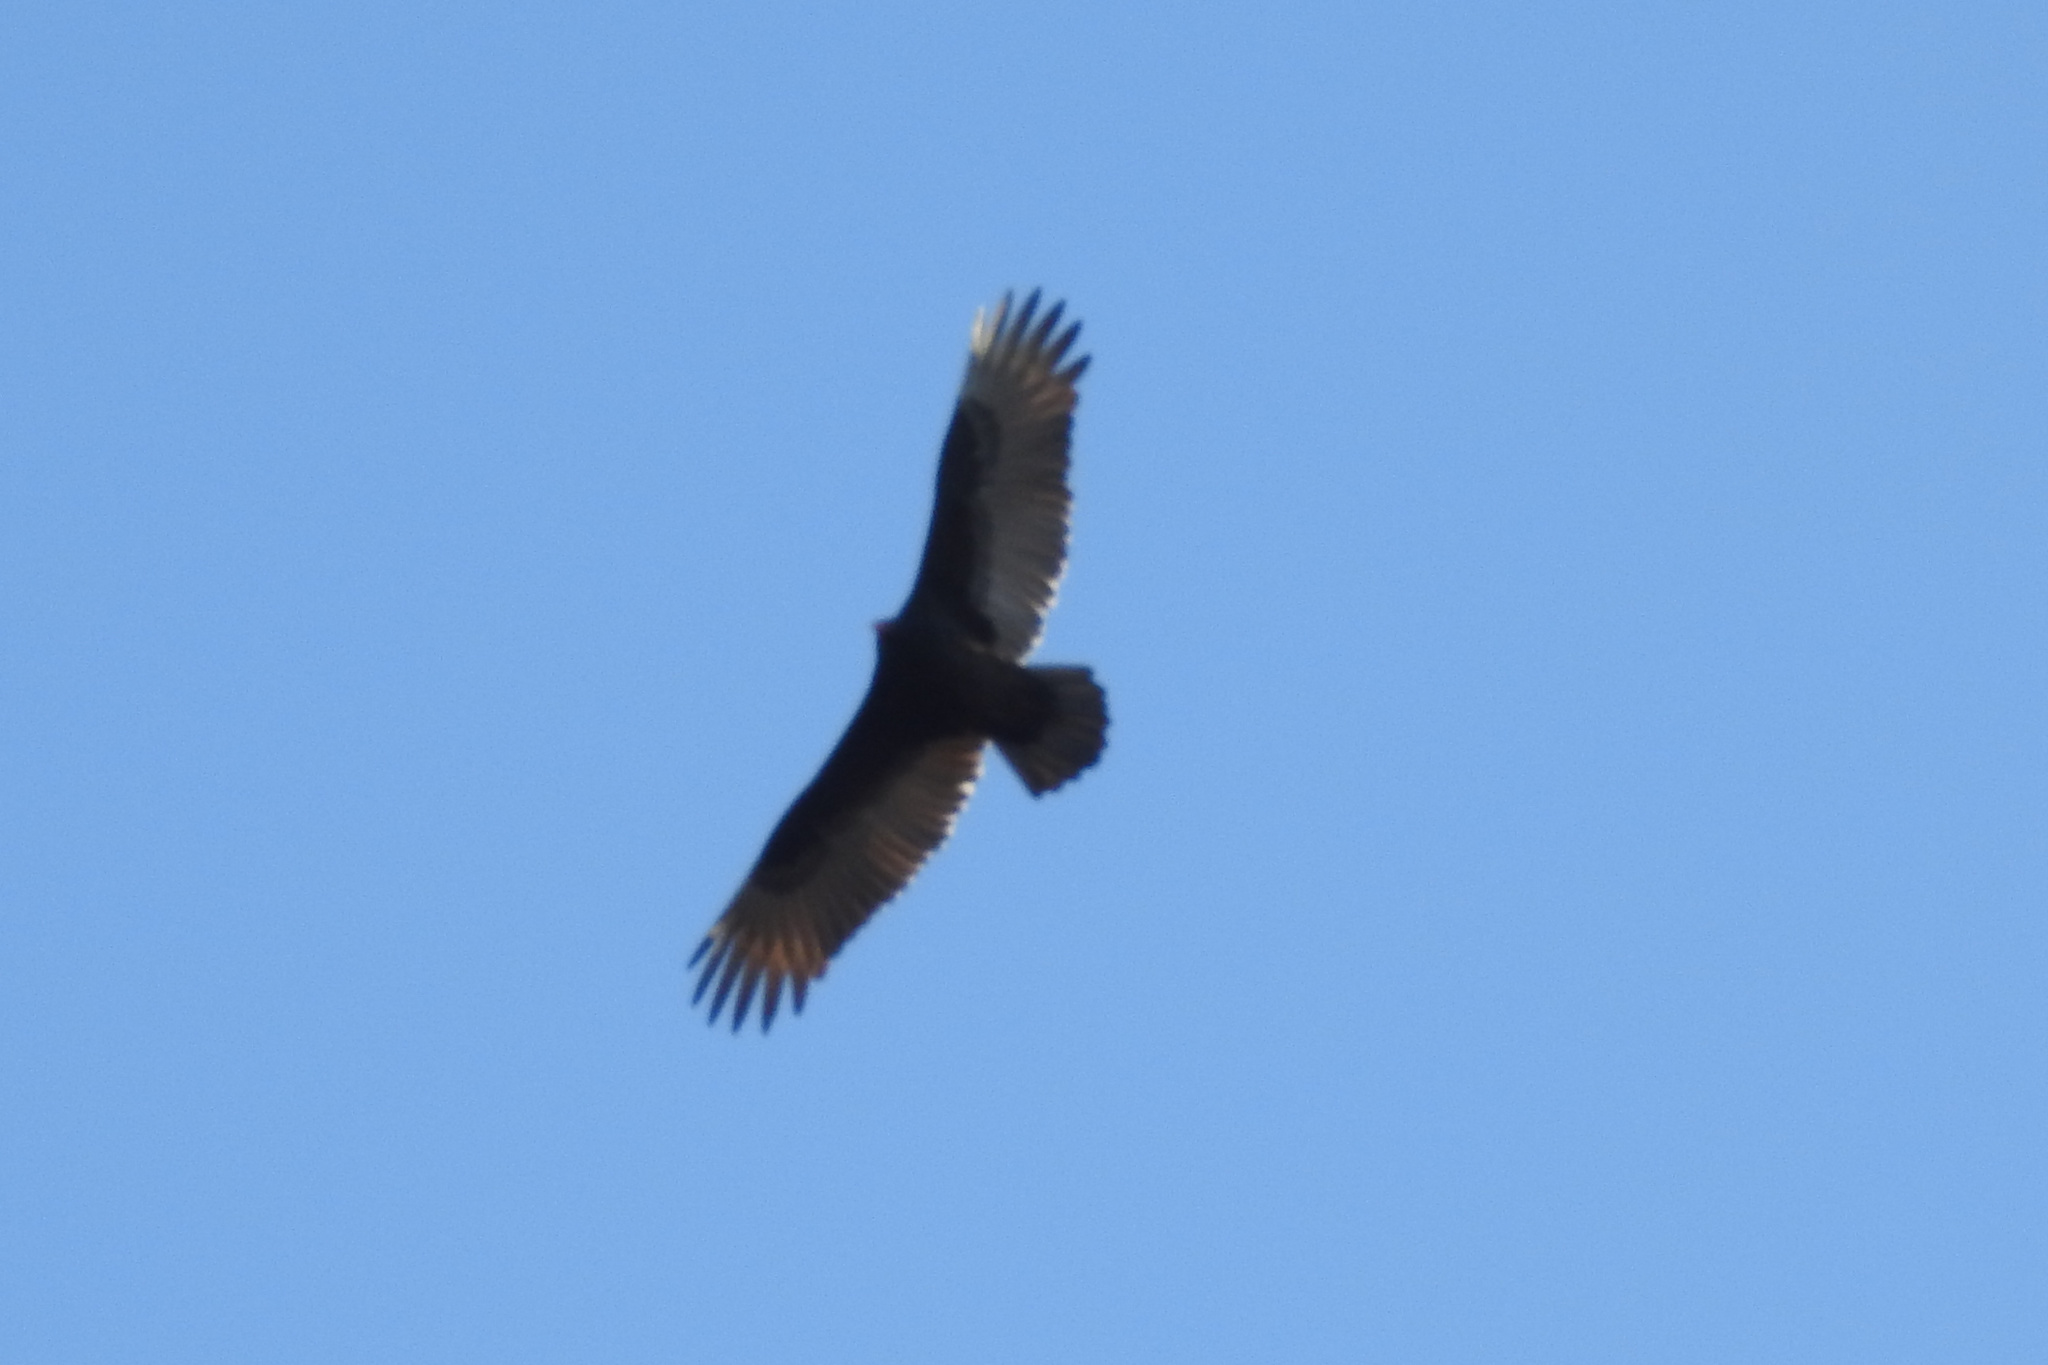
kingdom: Animalia
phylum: Chordata
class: Aves
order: Accipitriformes
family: Cathartidae
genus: Cathartes
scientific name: Cathartes aura
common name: Turkey vulture
